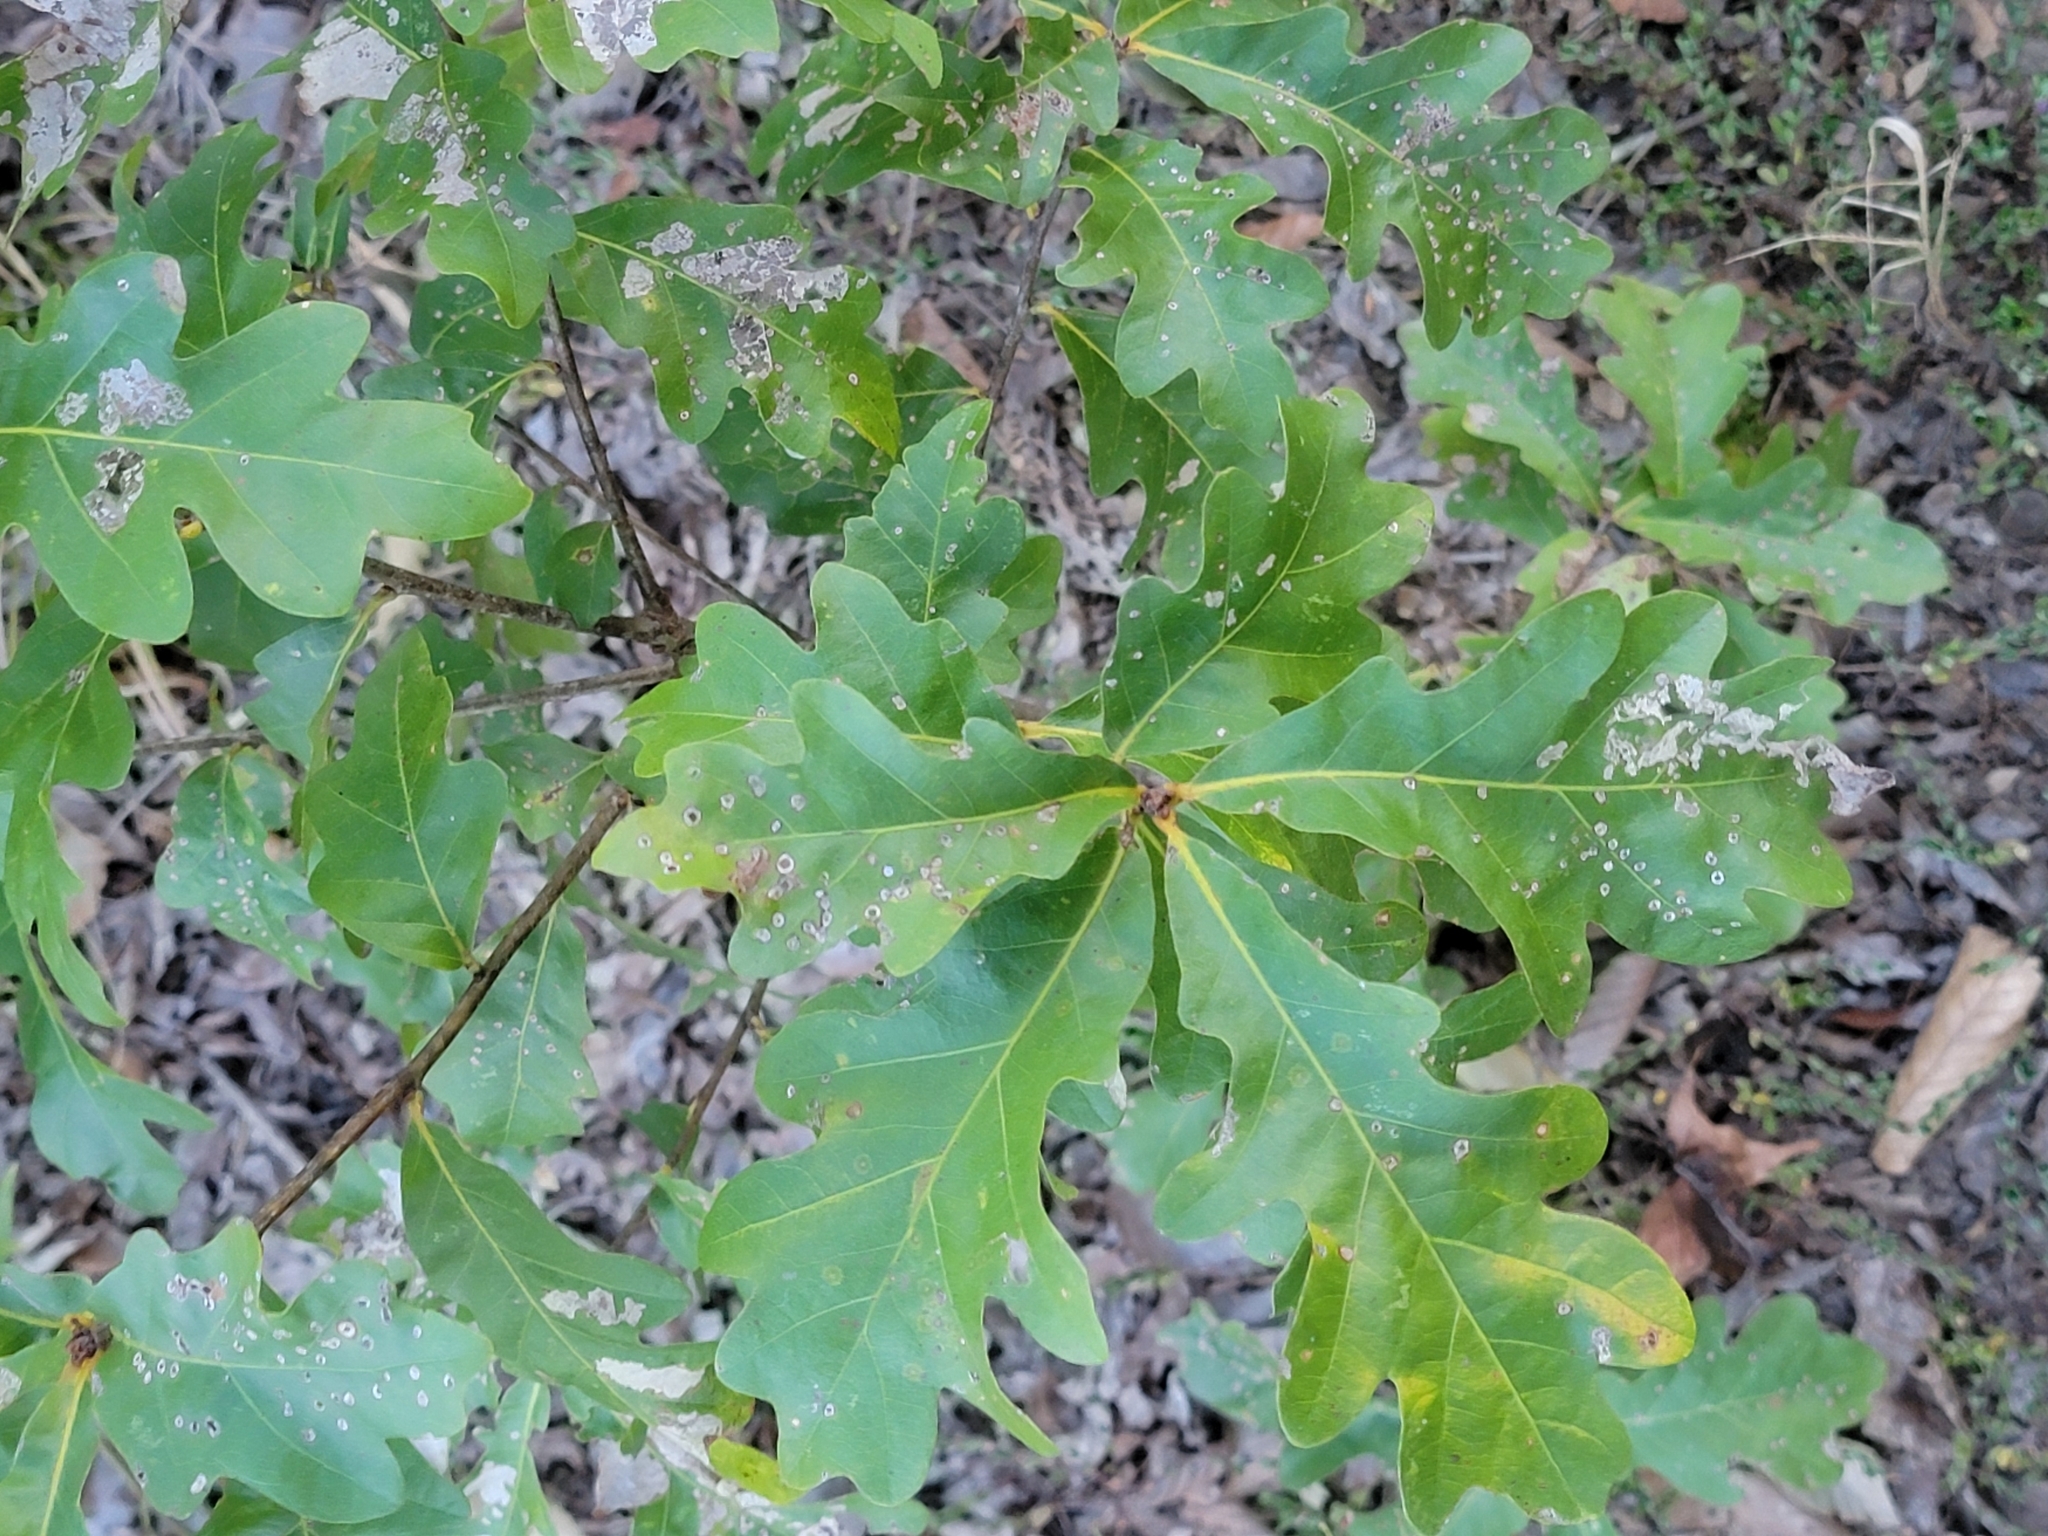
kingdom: Plantae
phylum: Tracheophyta
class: Magnoliopsida
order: Fagales
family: Fagaceae
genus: Quercus
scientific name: Quercus alba
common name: White oak
